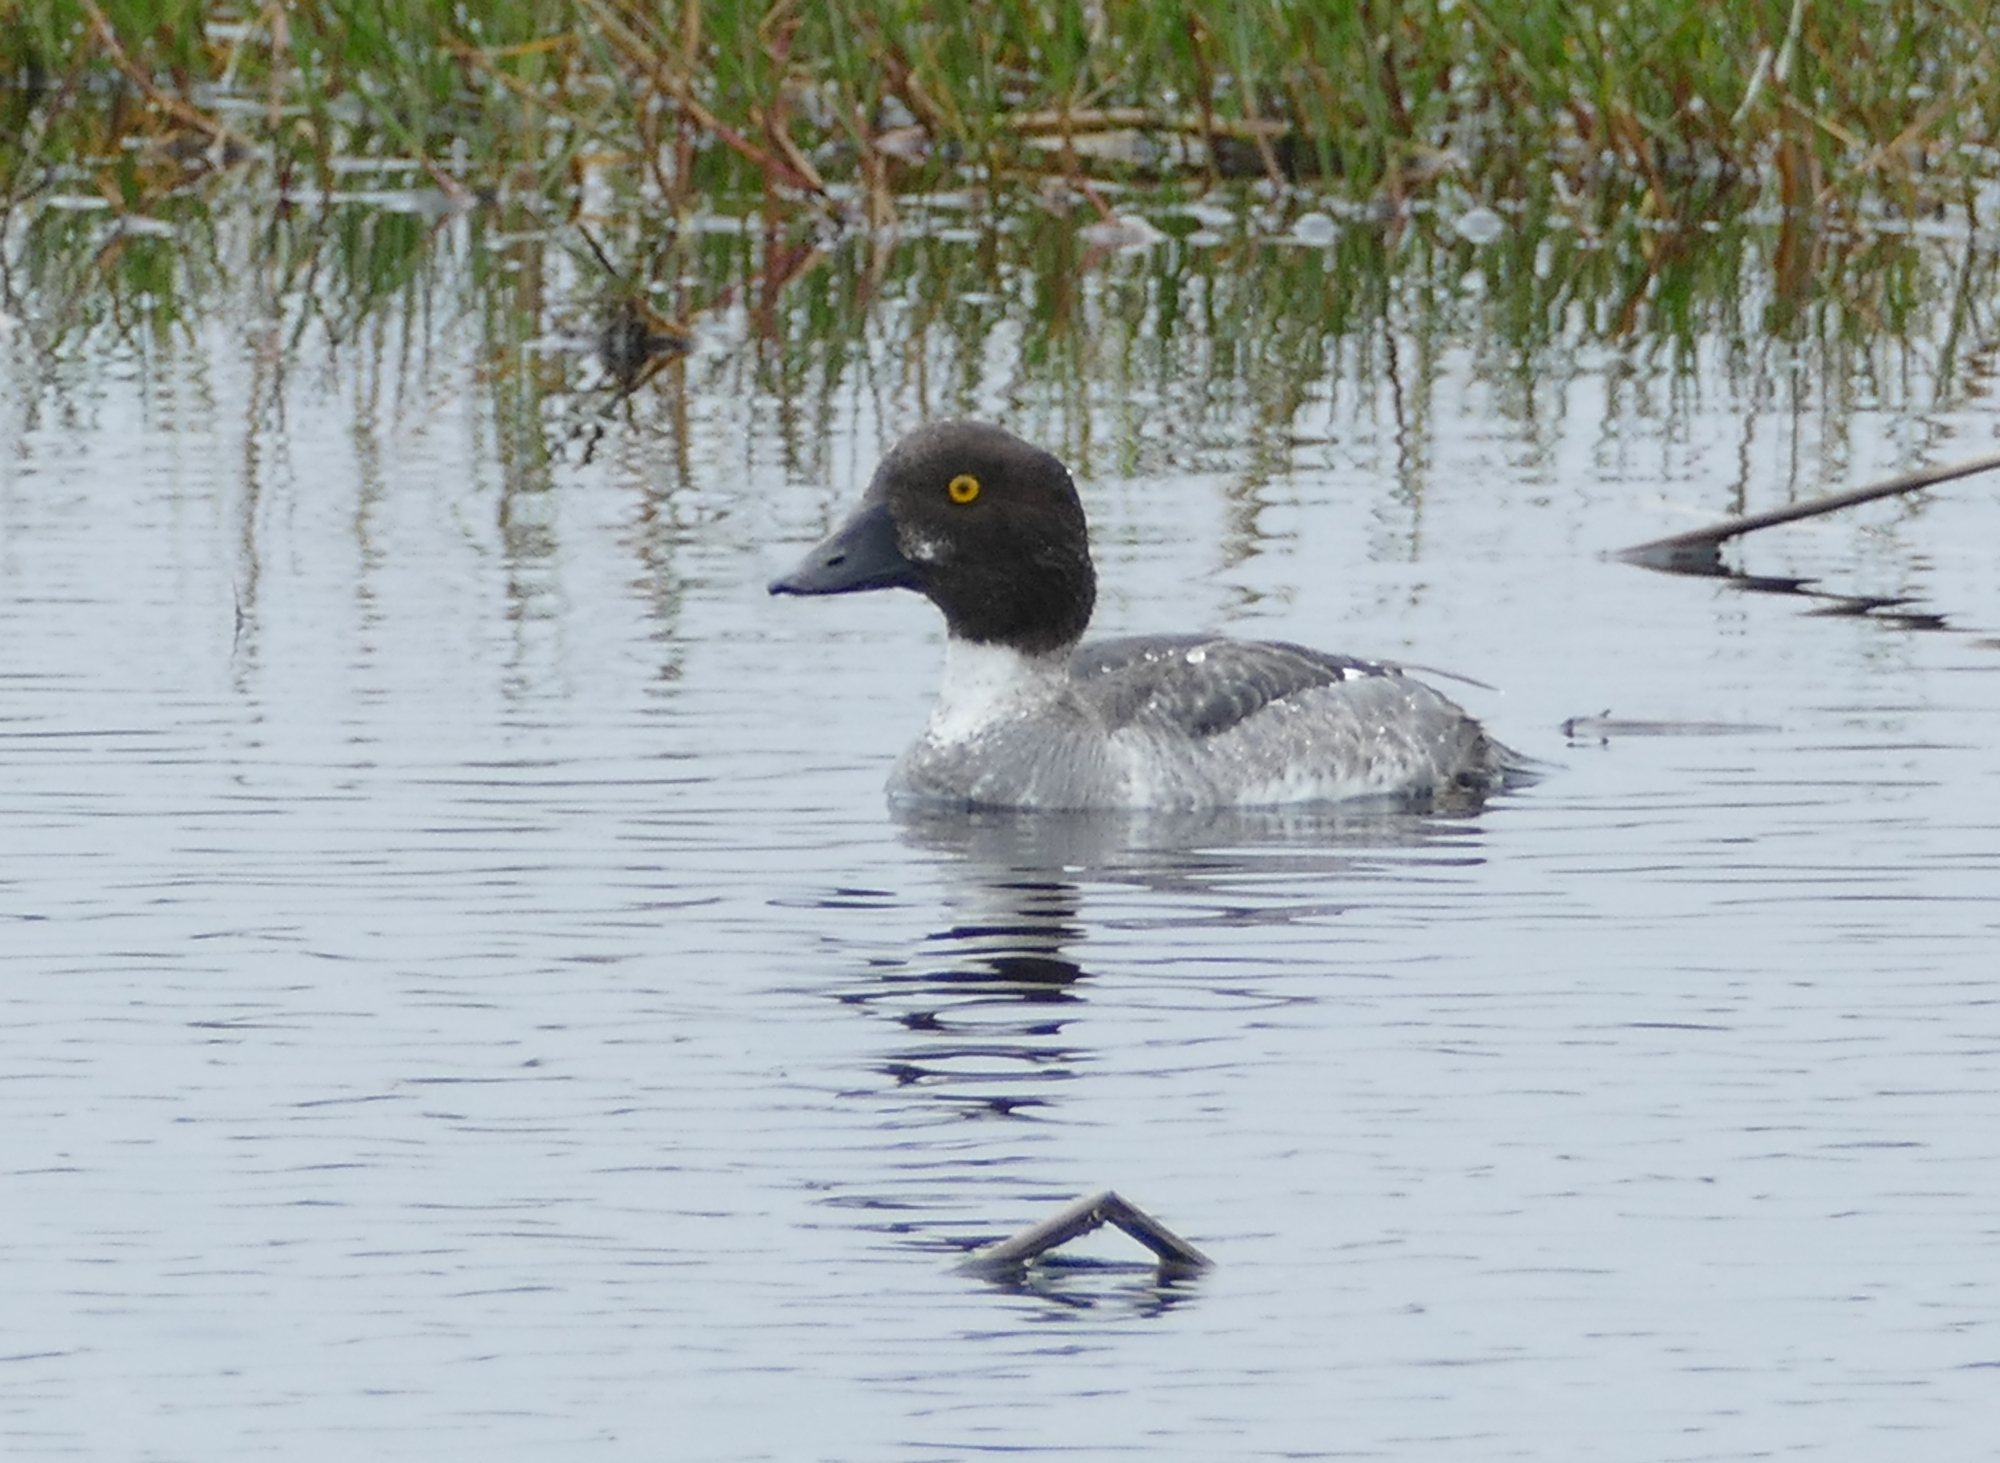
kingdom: Animalia
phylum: Chordata
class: Aves
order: Anseriformes
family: Anatidae
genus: Bucephala
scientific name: Bucephala clangula
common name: Common goldeneye
